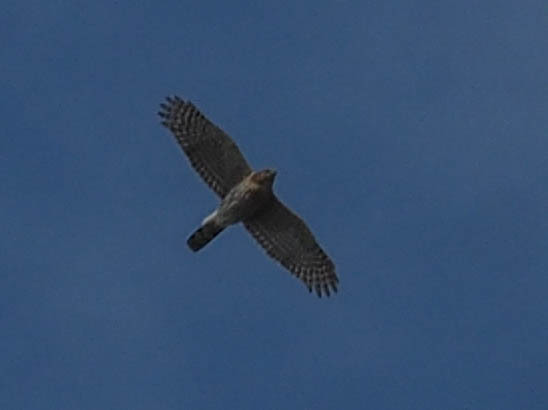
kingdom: Animalia
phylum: Chordata
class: Aves
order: Accipitriformes
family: Accipitridae
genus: Accipiter
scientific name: Accipiter cooperii
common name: Cooper's hawk
